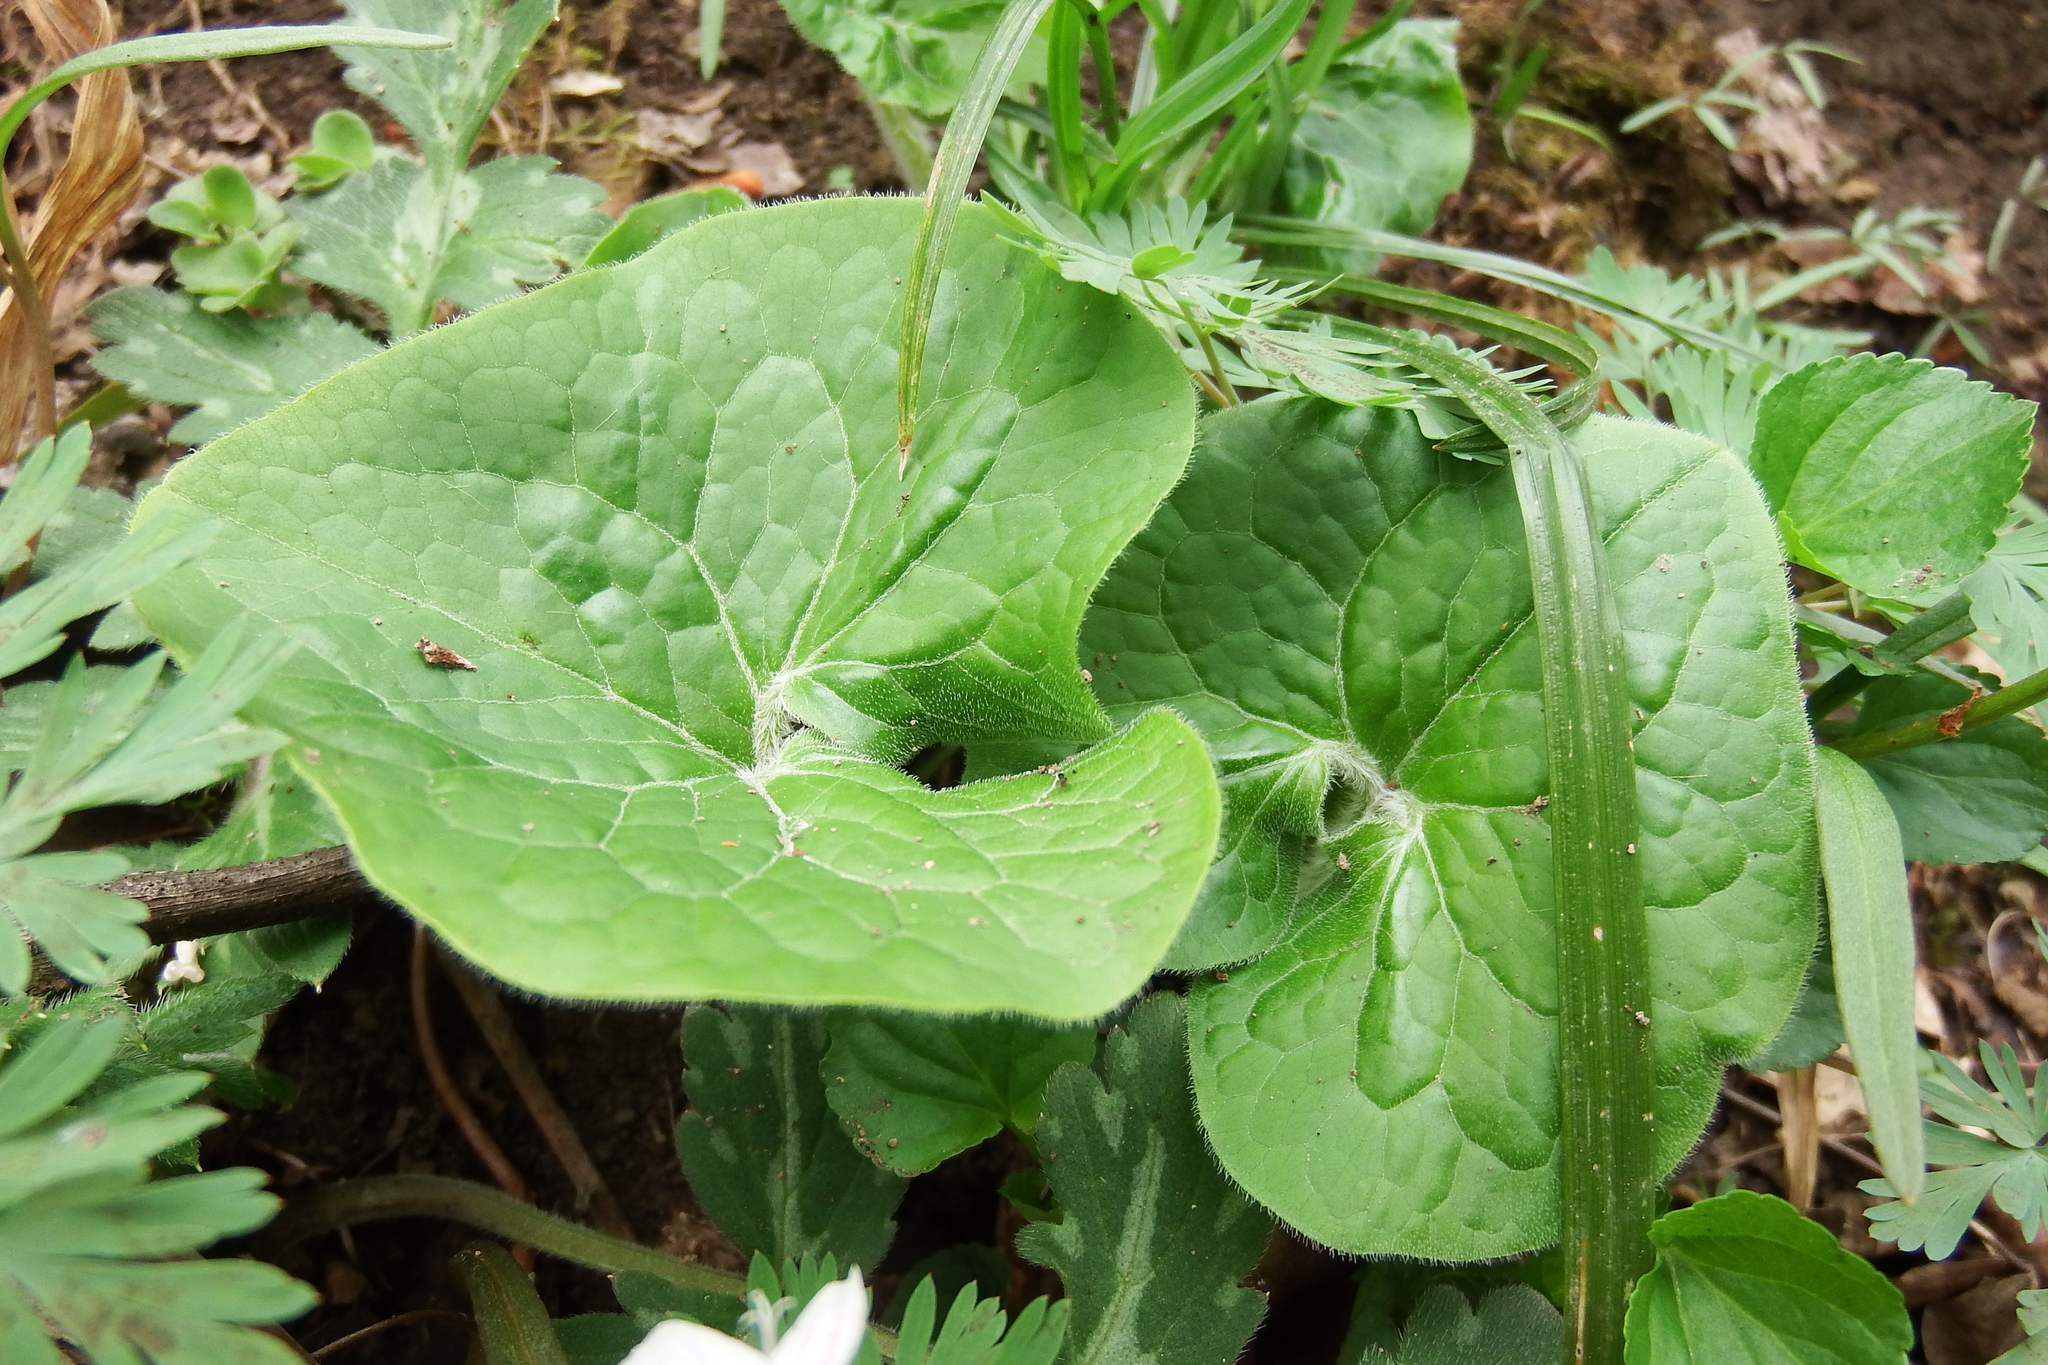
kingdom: Plantae
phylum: Tracheophyta
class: Magnoliopsida
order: Piperales
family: Aristolochiaceae
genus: Asarum
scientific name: Asarum canadense
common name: Wild ginger
